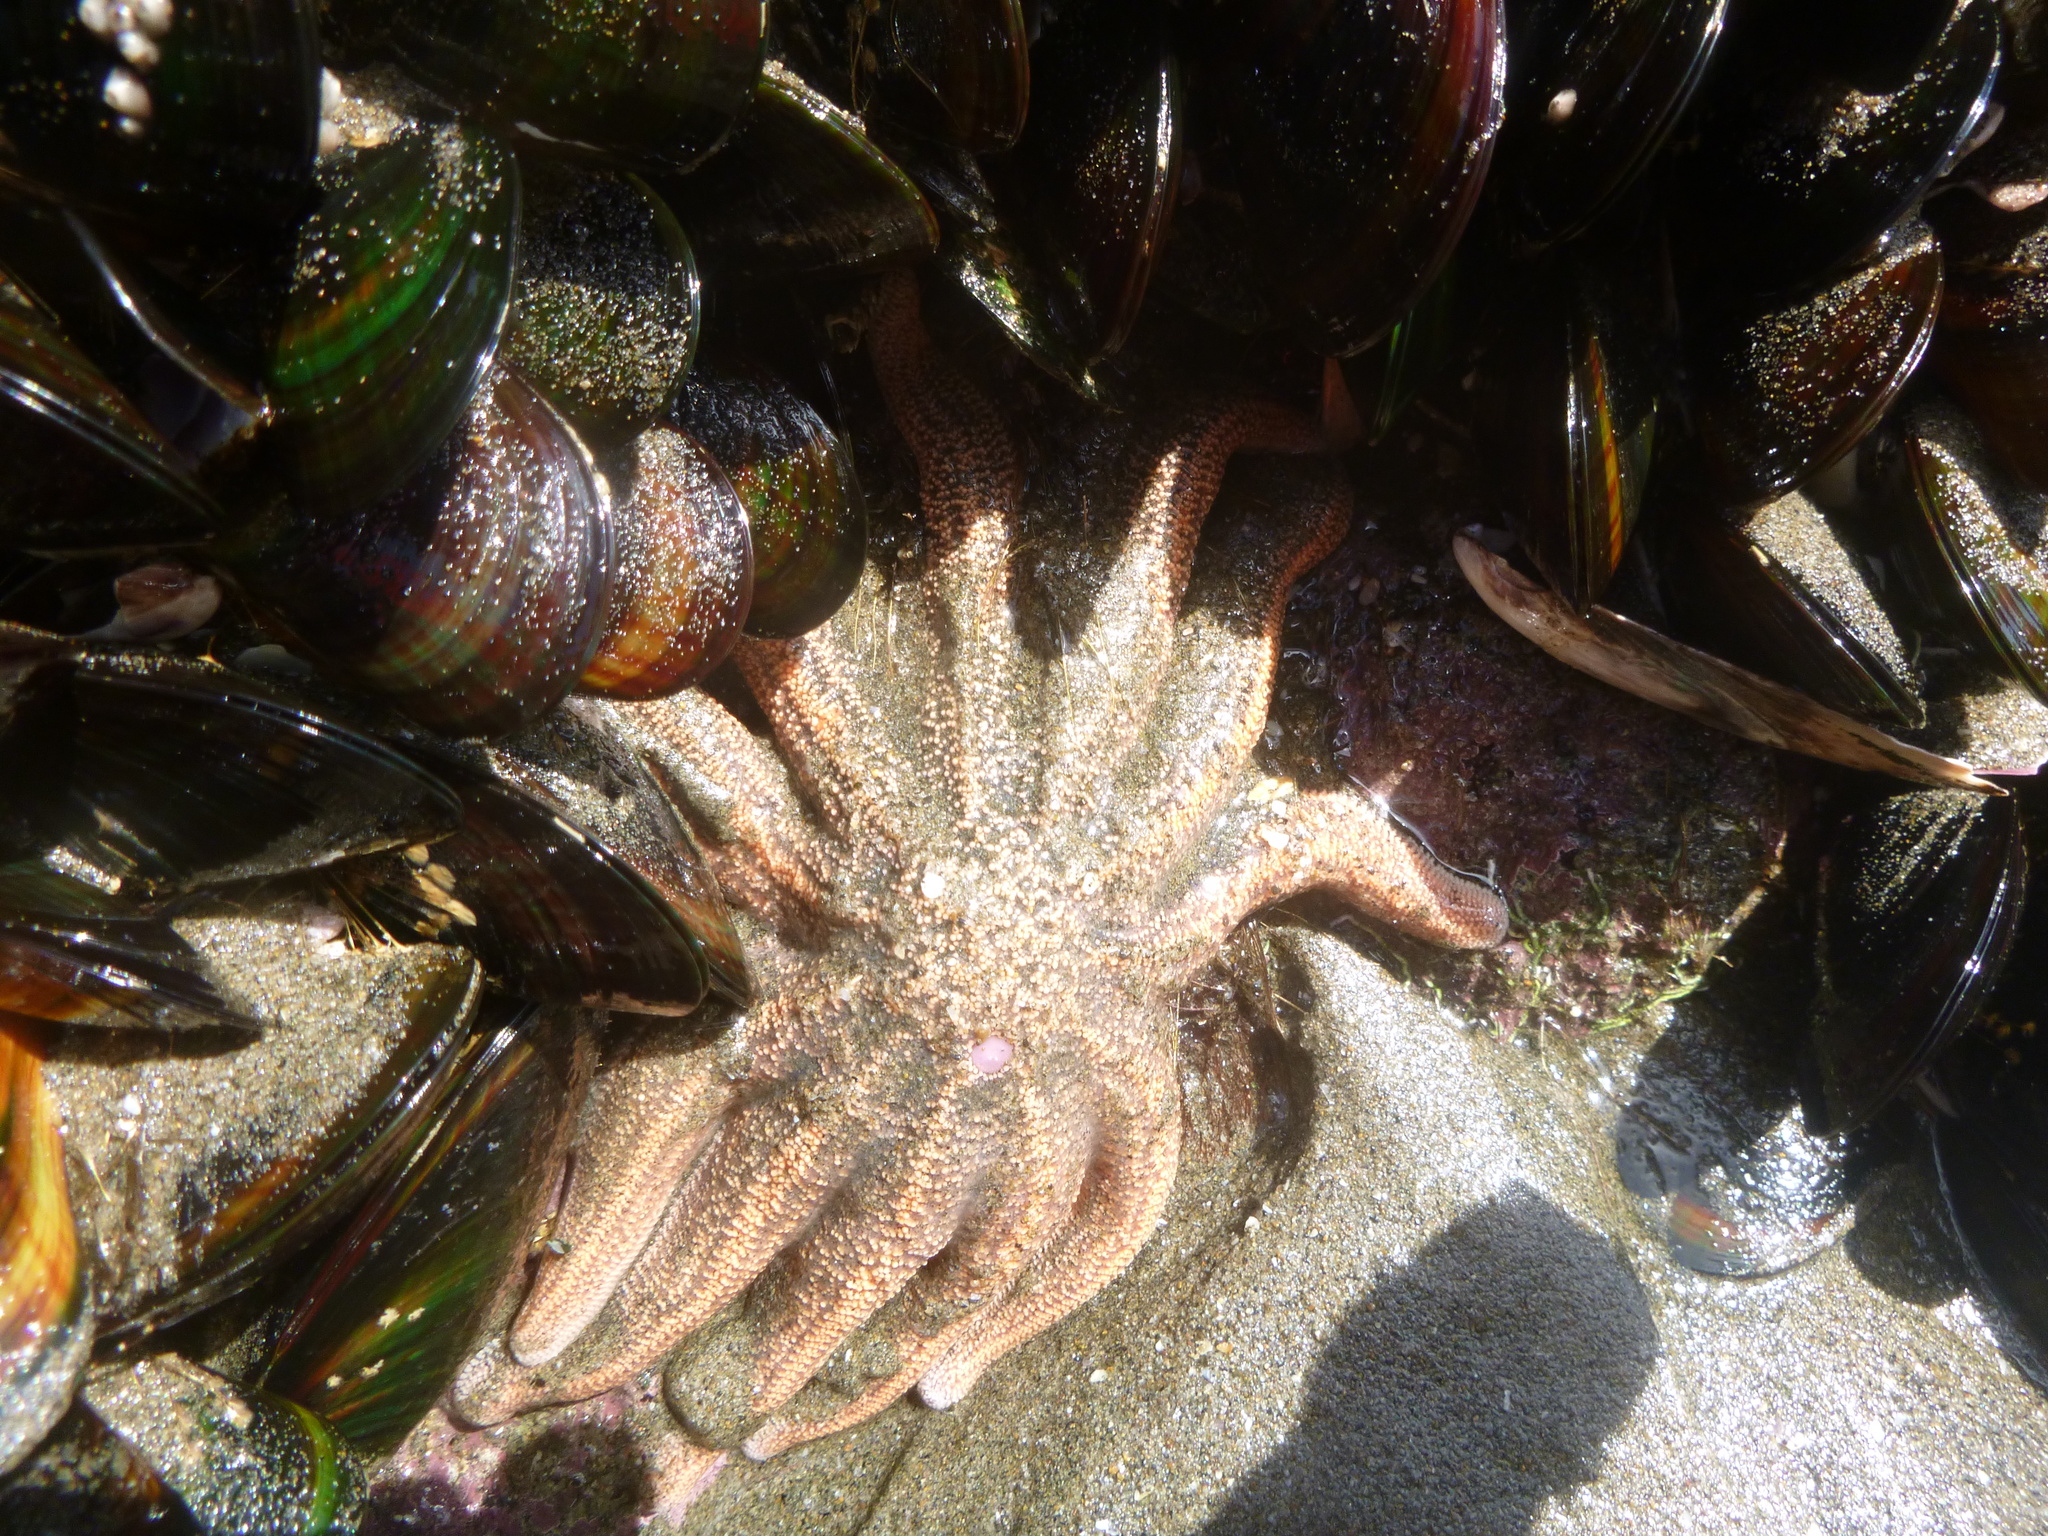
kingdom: Animalia
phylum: Echinodermata
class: Asteroidea
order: Forcipulatida
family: Stichasteridae
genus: Stichaster
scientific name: Stichaster australis
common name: Reef starfish
